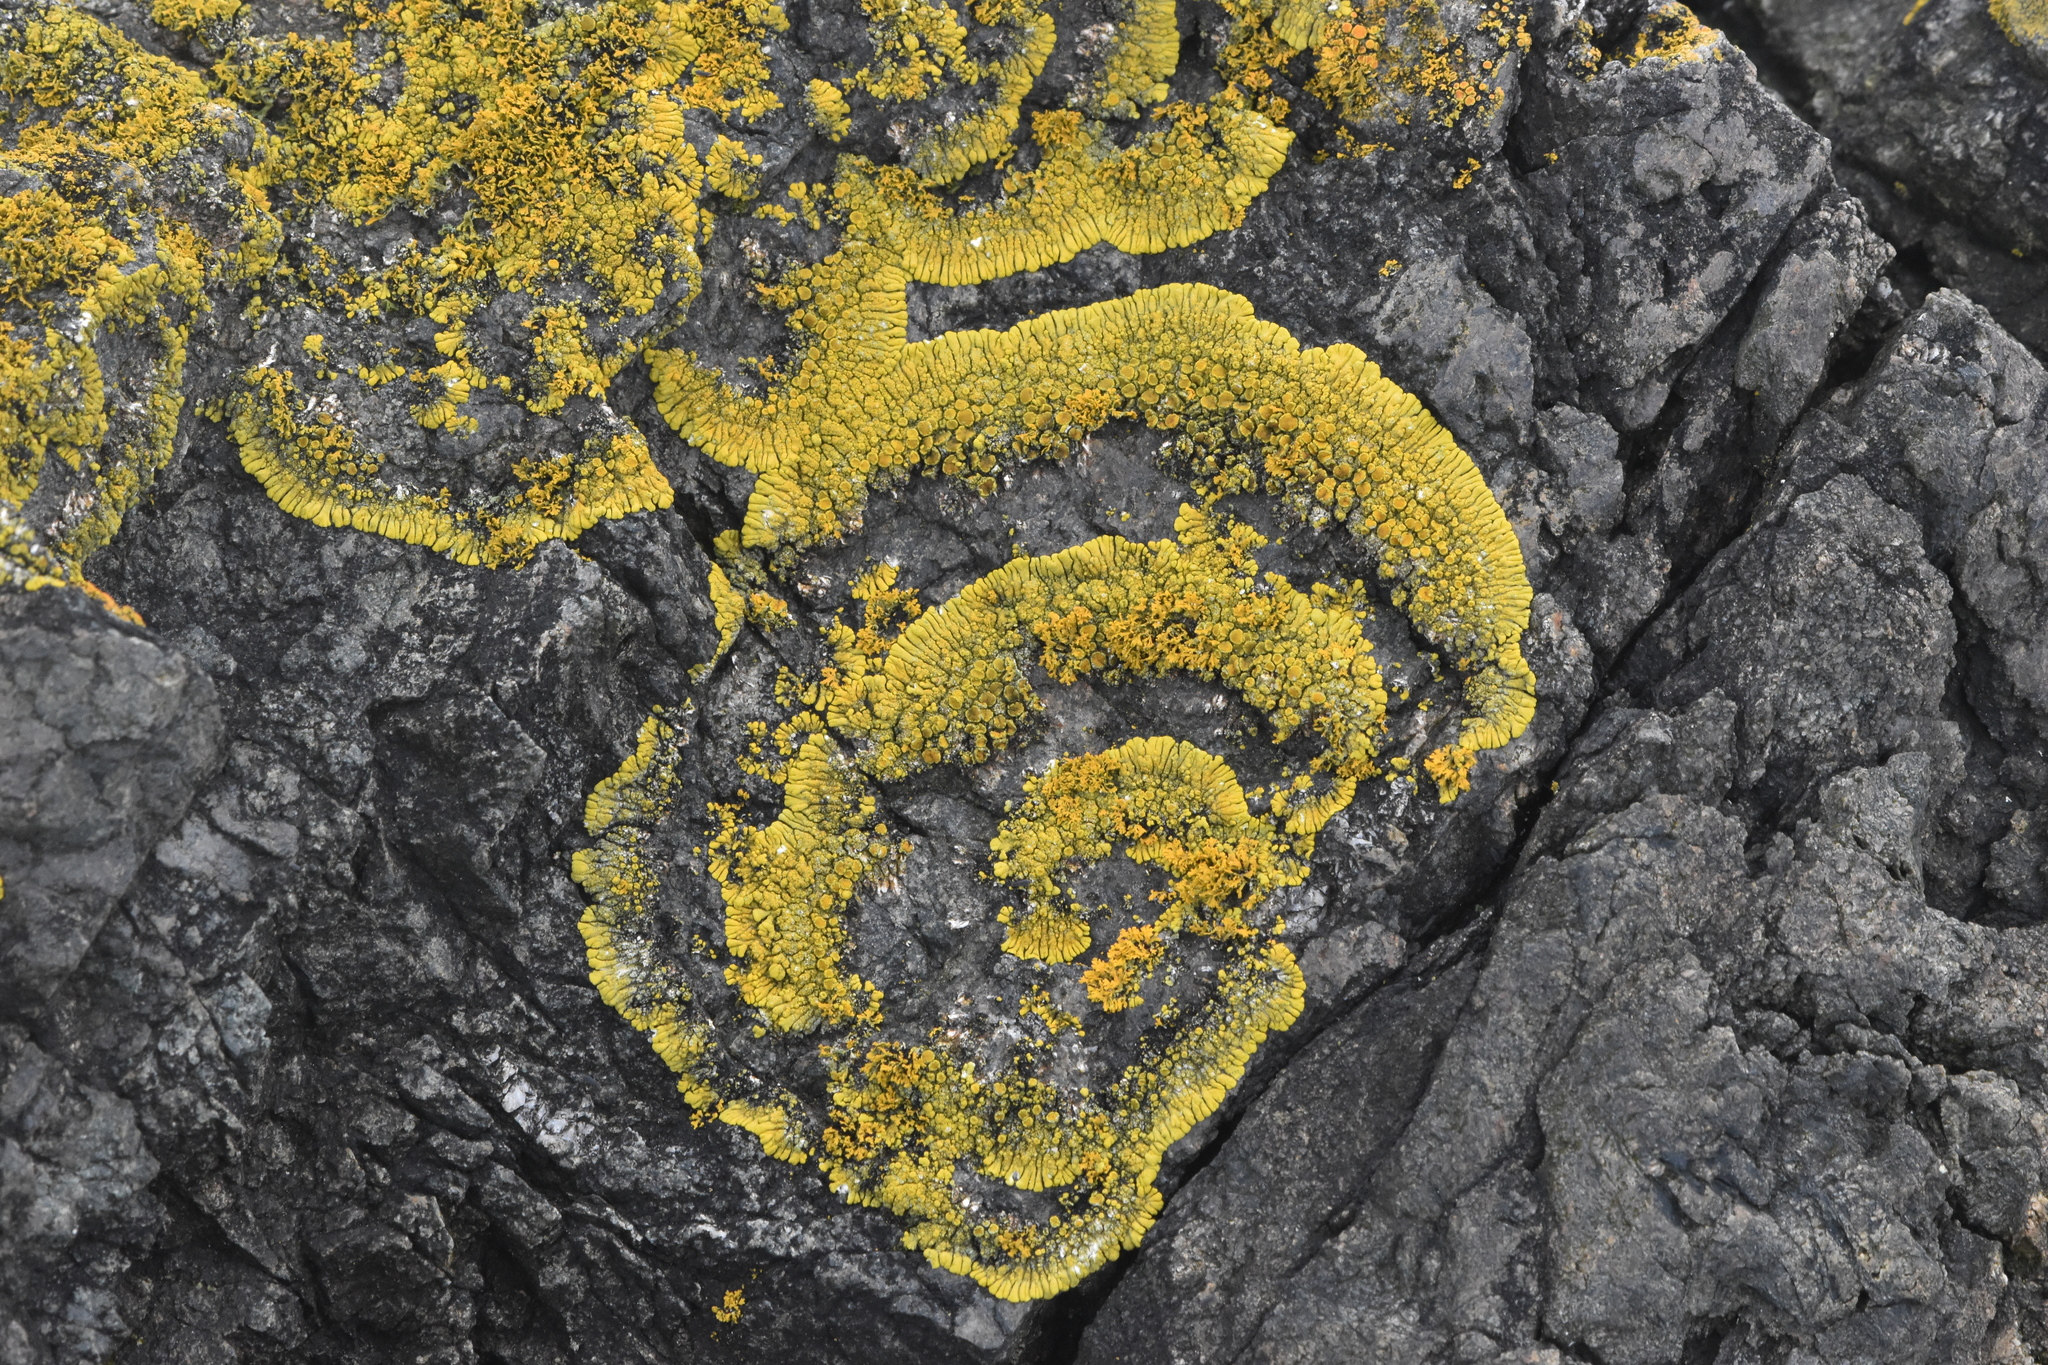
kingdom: Fungi
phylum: Ascomycota
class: Lecanoromycetes
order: Teloschistales
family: Teloschistaceae
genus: Verrucoplaca
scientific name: Verrucoplaca verruculifera
